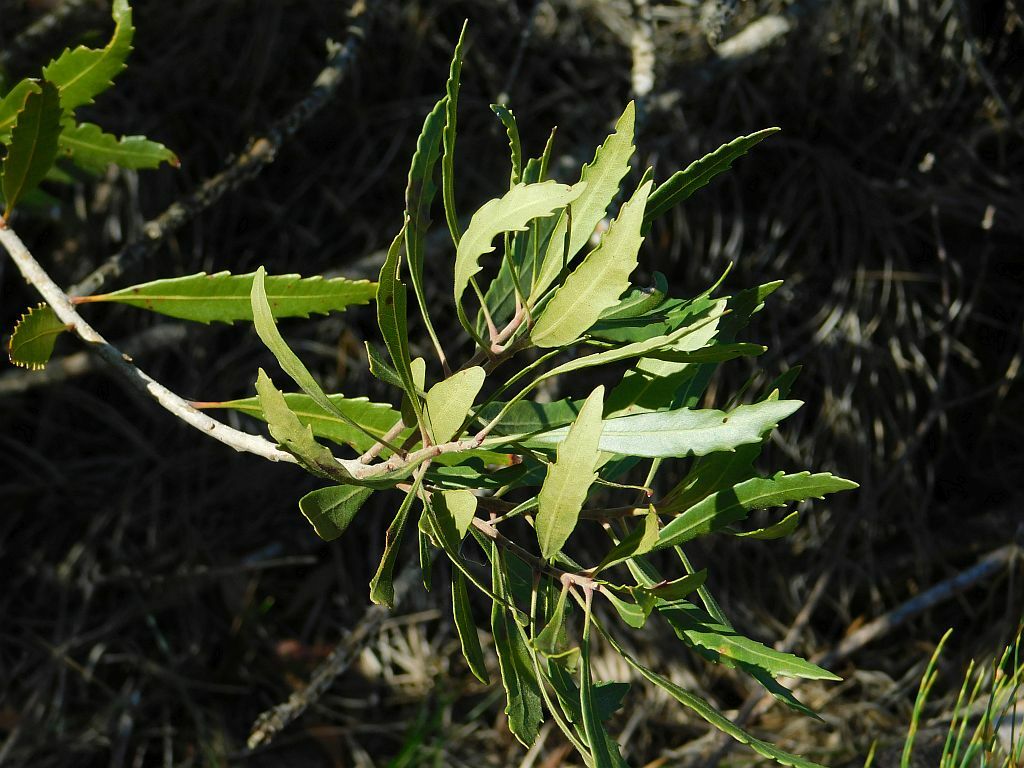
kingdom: Plantae
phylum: Tracheophyta
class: Magnoliopsida
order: Fagales
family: Myricaceae
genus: Morella
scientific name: Morella serrata
